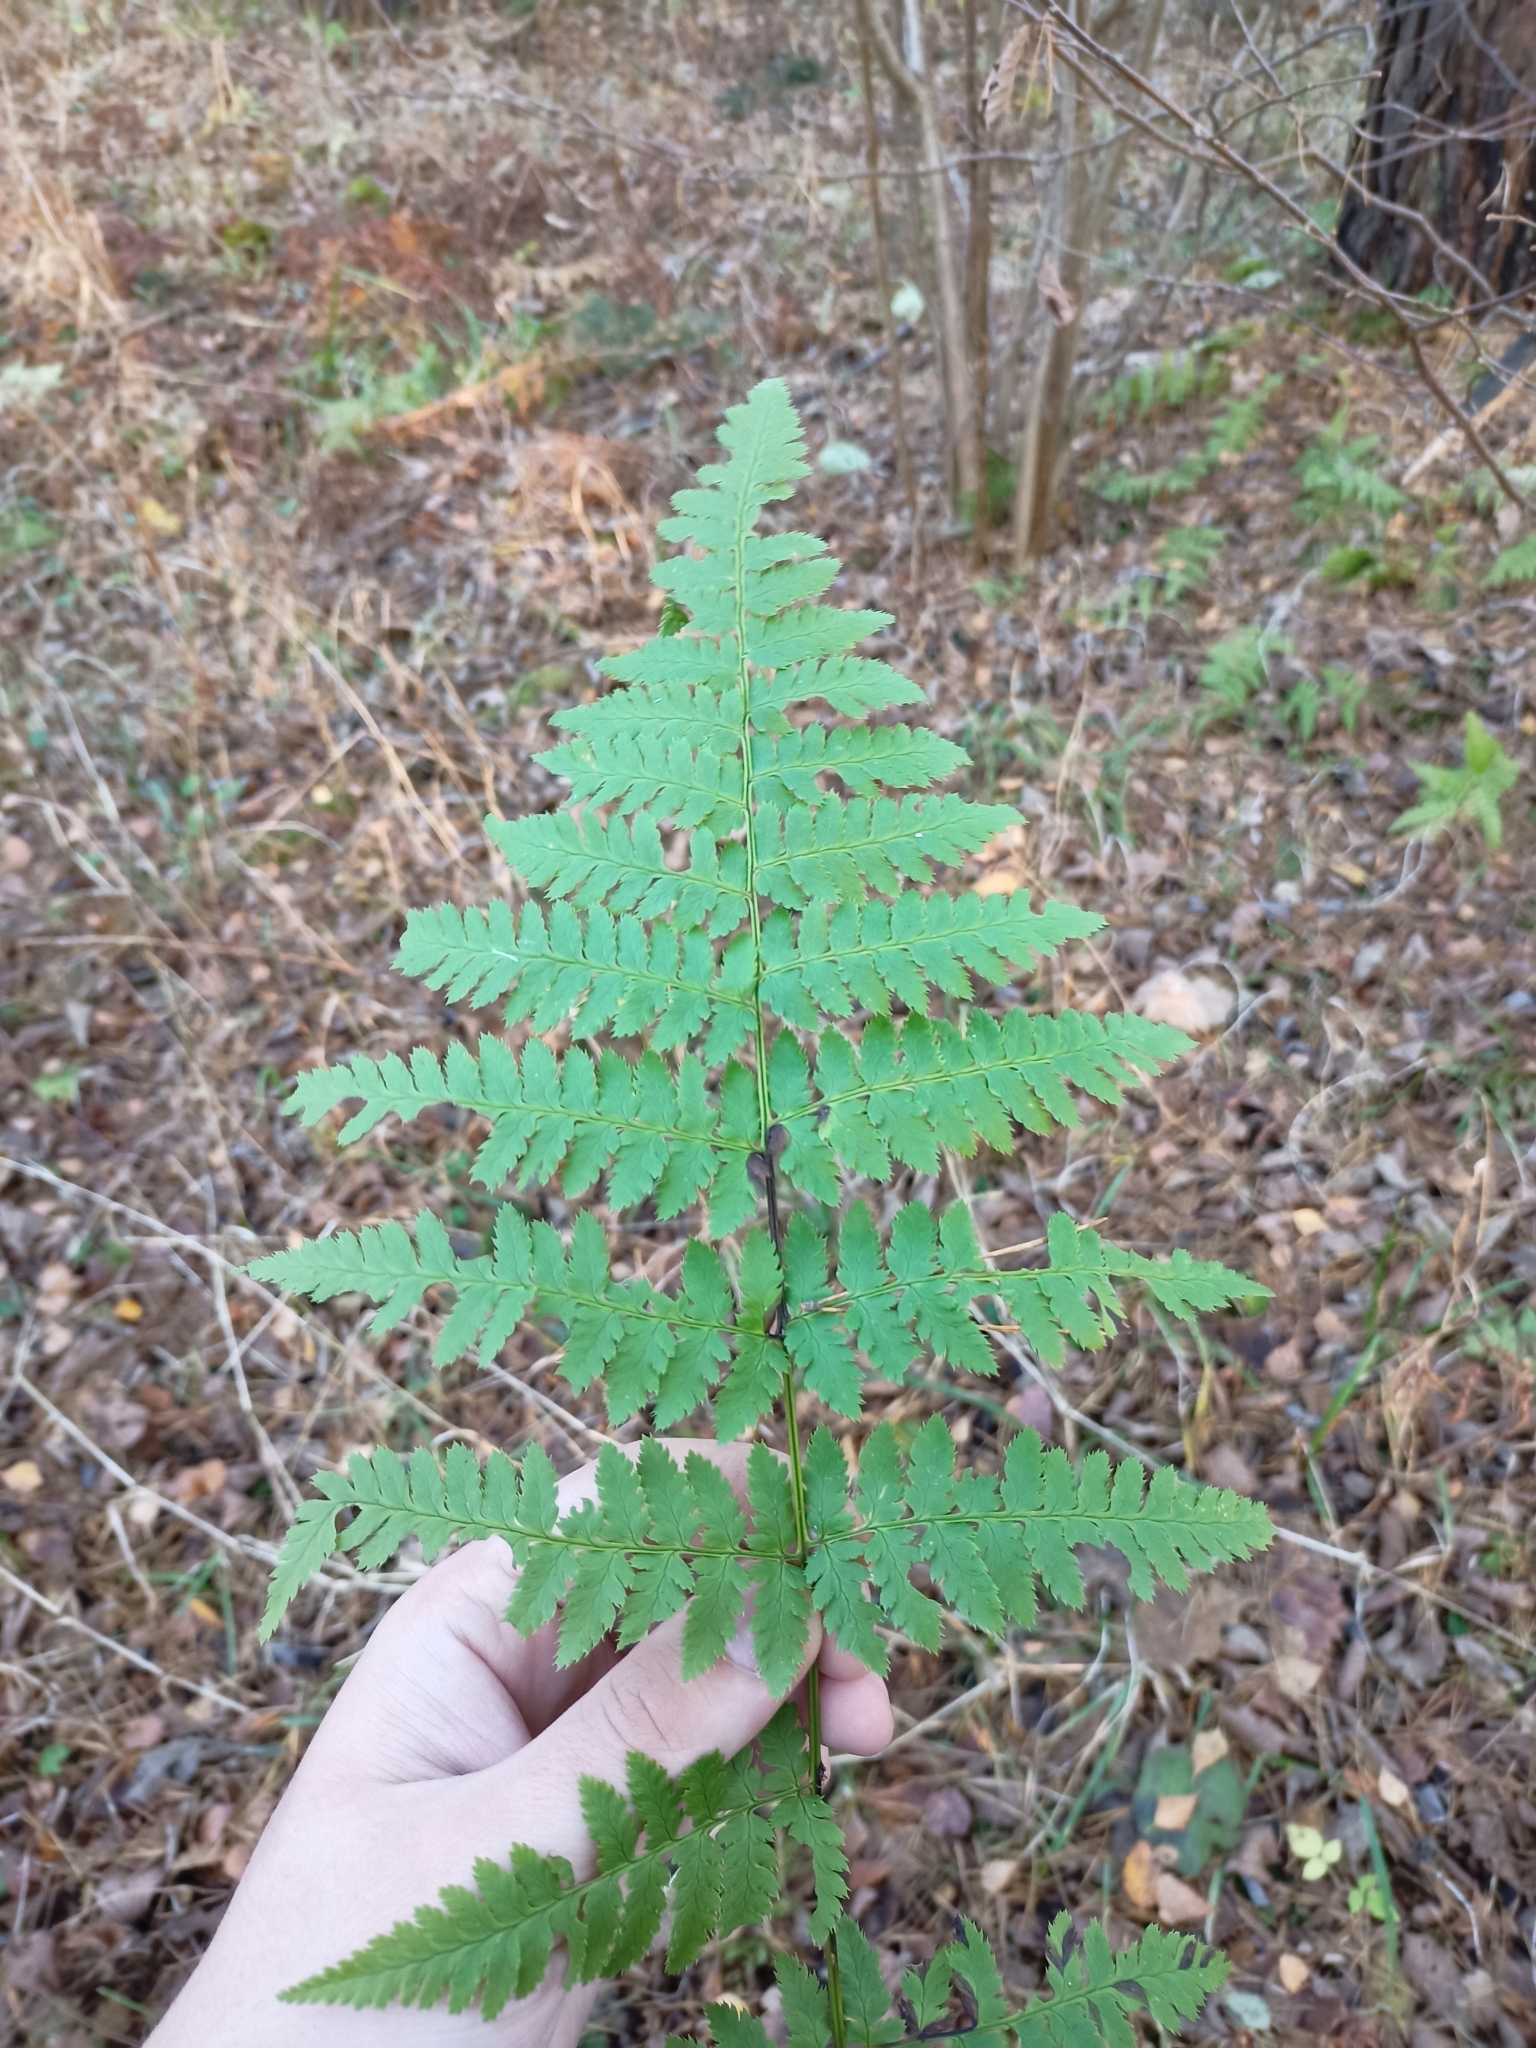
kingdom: Plantae
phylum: Tracheophyta
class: Polypodiopsida
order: Polypodiales
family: Dryopteridaceae
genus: Dryopteris
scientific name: Dryopteris carthusiana
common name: Narrow buckler-fern
